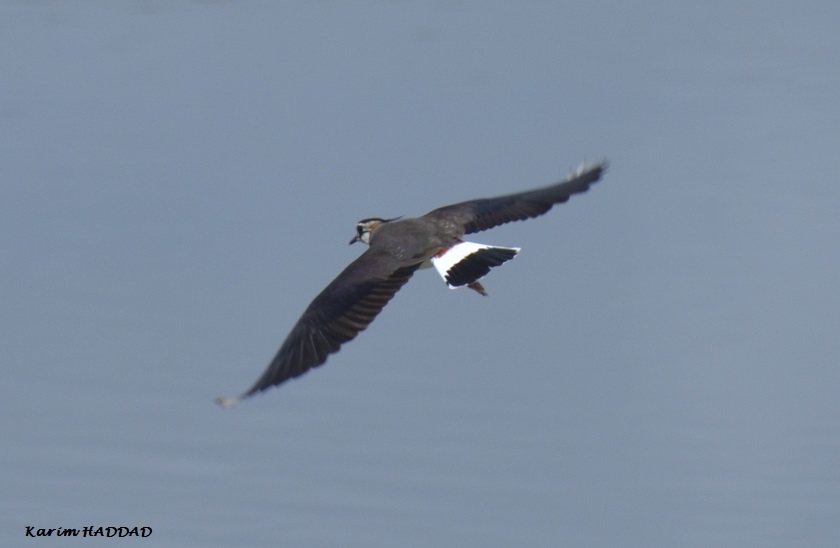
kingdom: Animalia
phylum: Chordata
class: Aves
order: Charadriiformes
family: Charadriidae
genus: Vanellus
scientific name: Vanellus vanellus
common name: Northern lapwing
